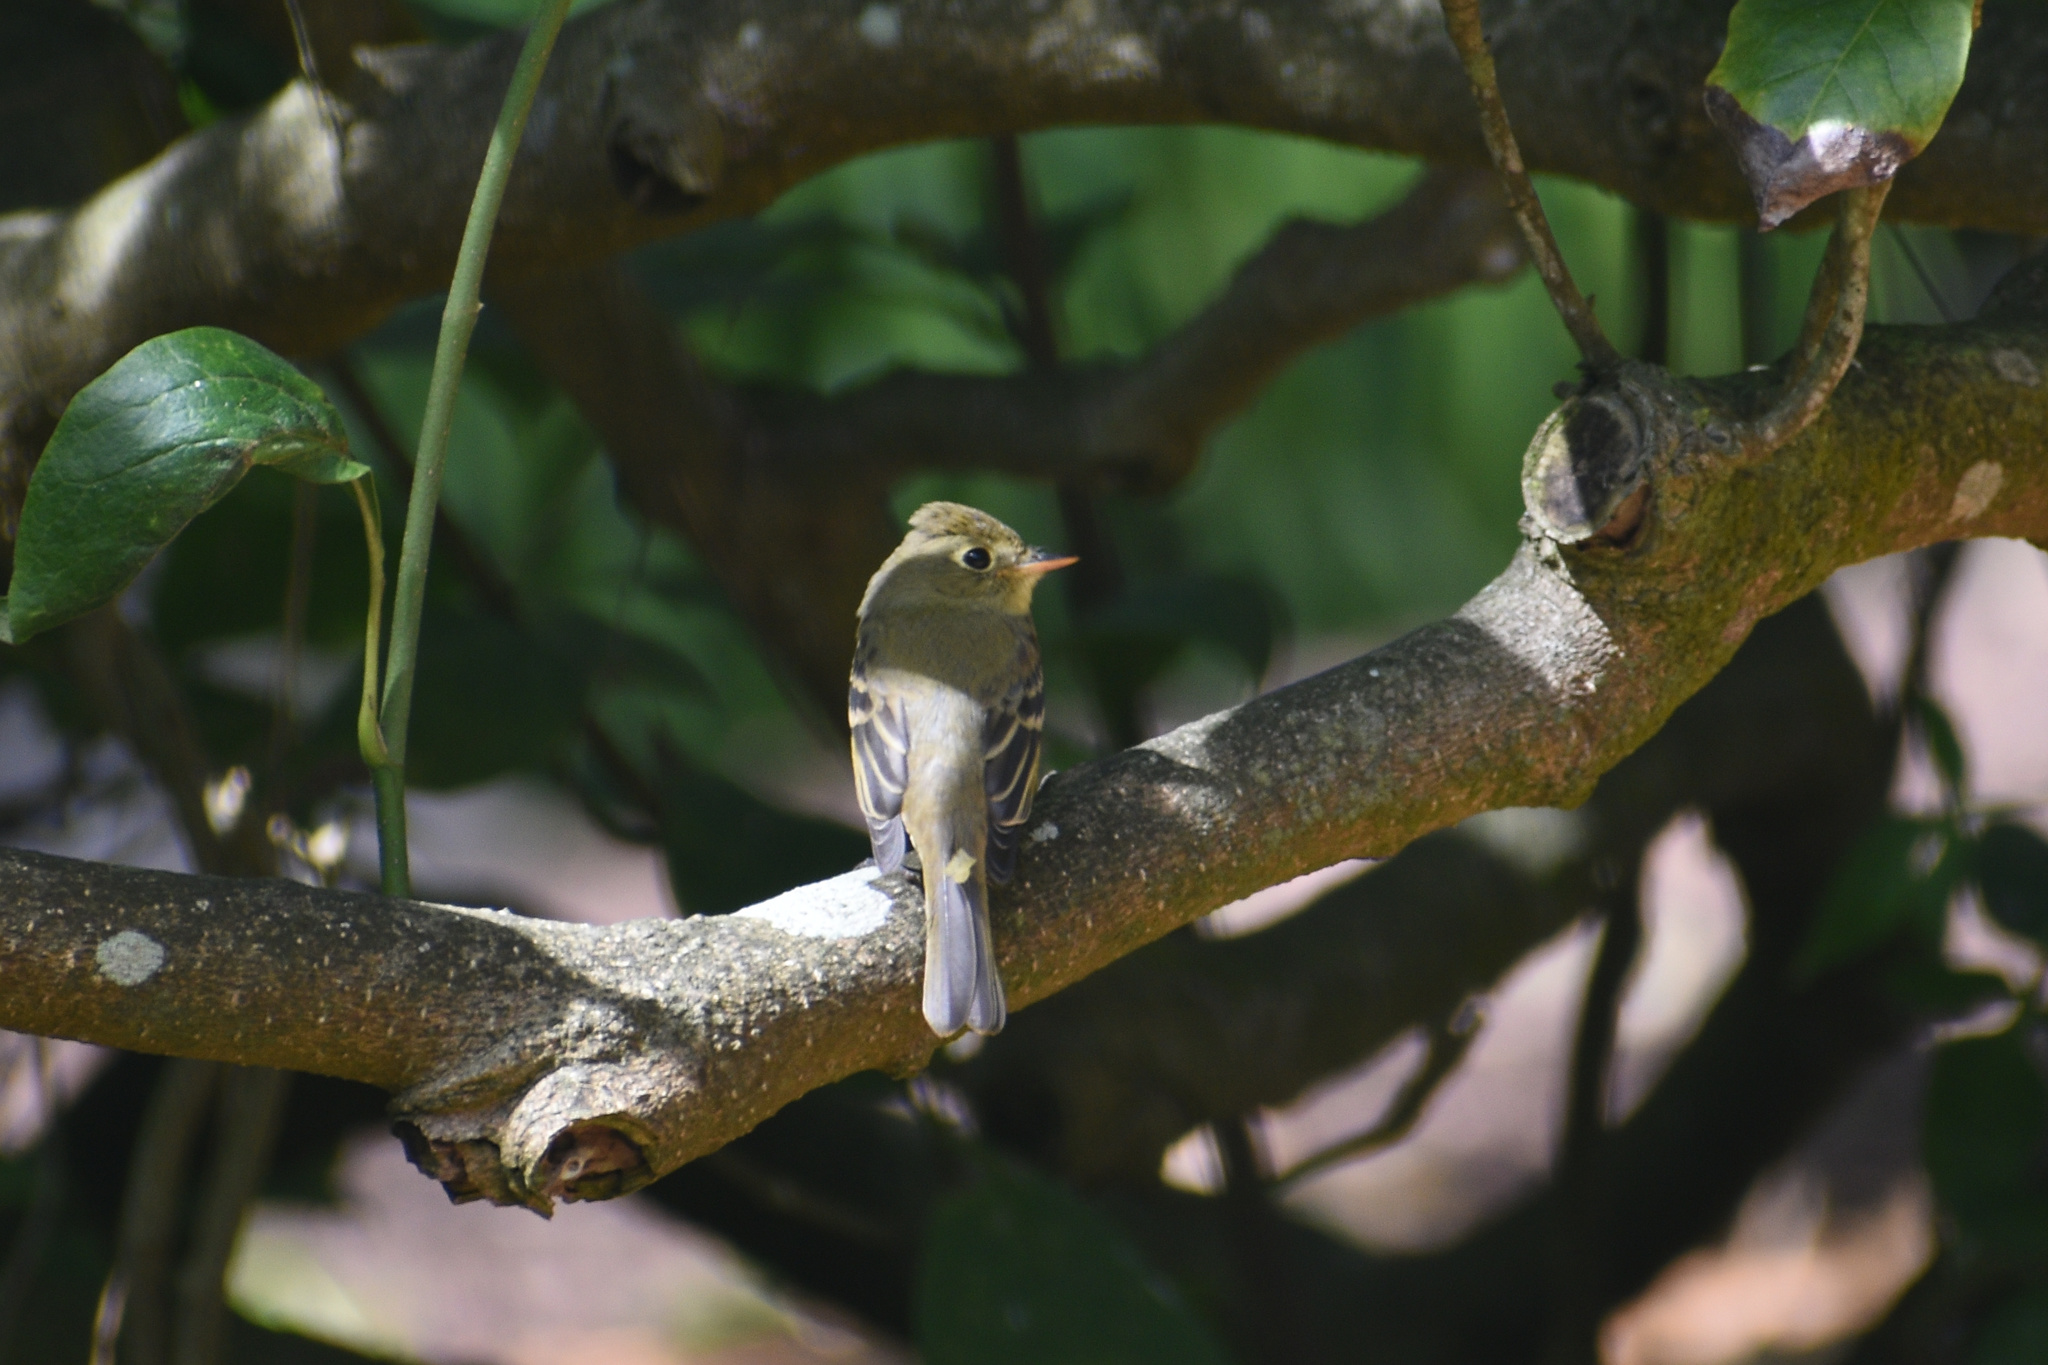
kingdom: Animalia
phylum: Chordata
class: Aves
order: Passeriformes
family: Tyrannidae
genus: Empidonax
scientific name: Empidonax difficilis
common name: Pacific-slope flycatcher
